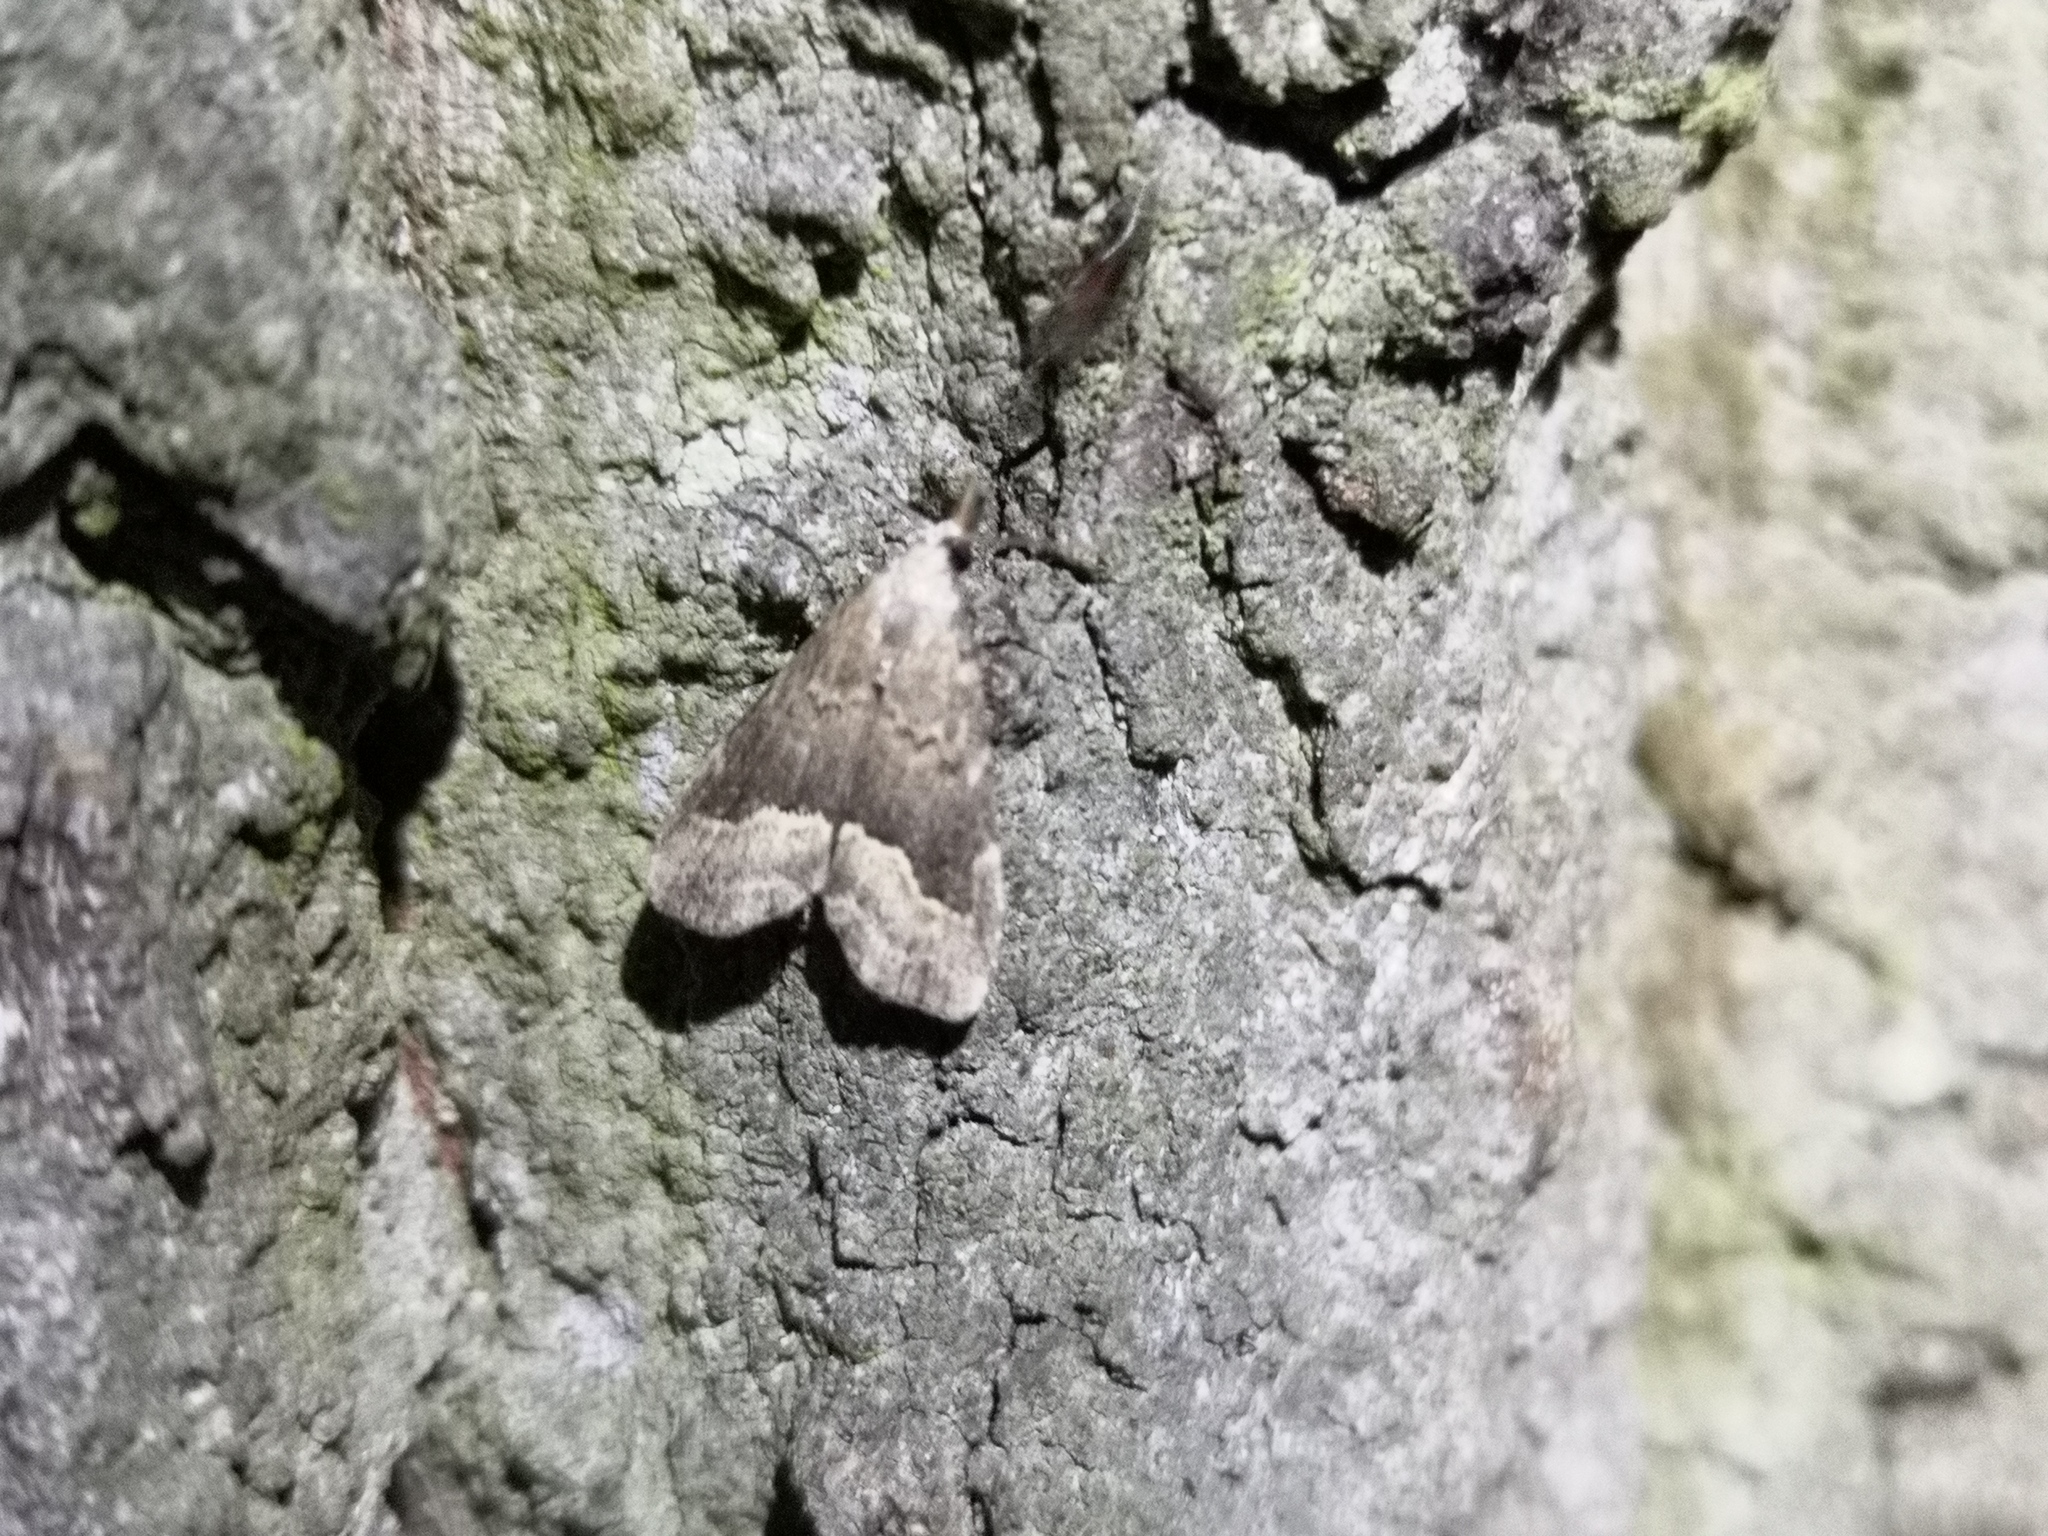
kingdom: Animalia
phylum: Arthropoda
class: Insecta
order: Lepidoptera
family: Erebidae
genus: Schrankia
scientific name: Schrankia taenialis
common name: White-line snout
